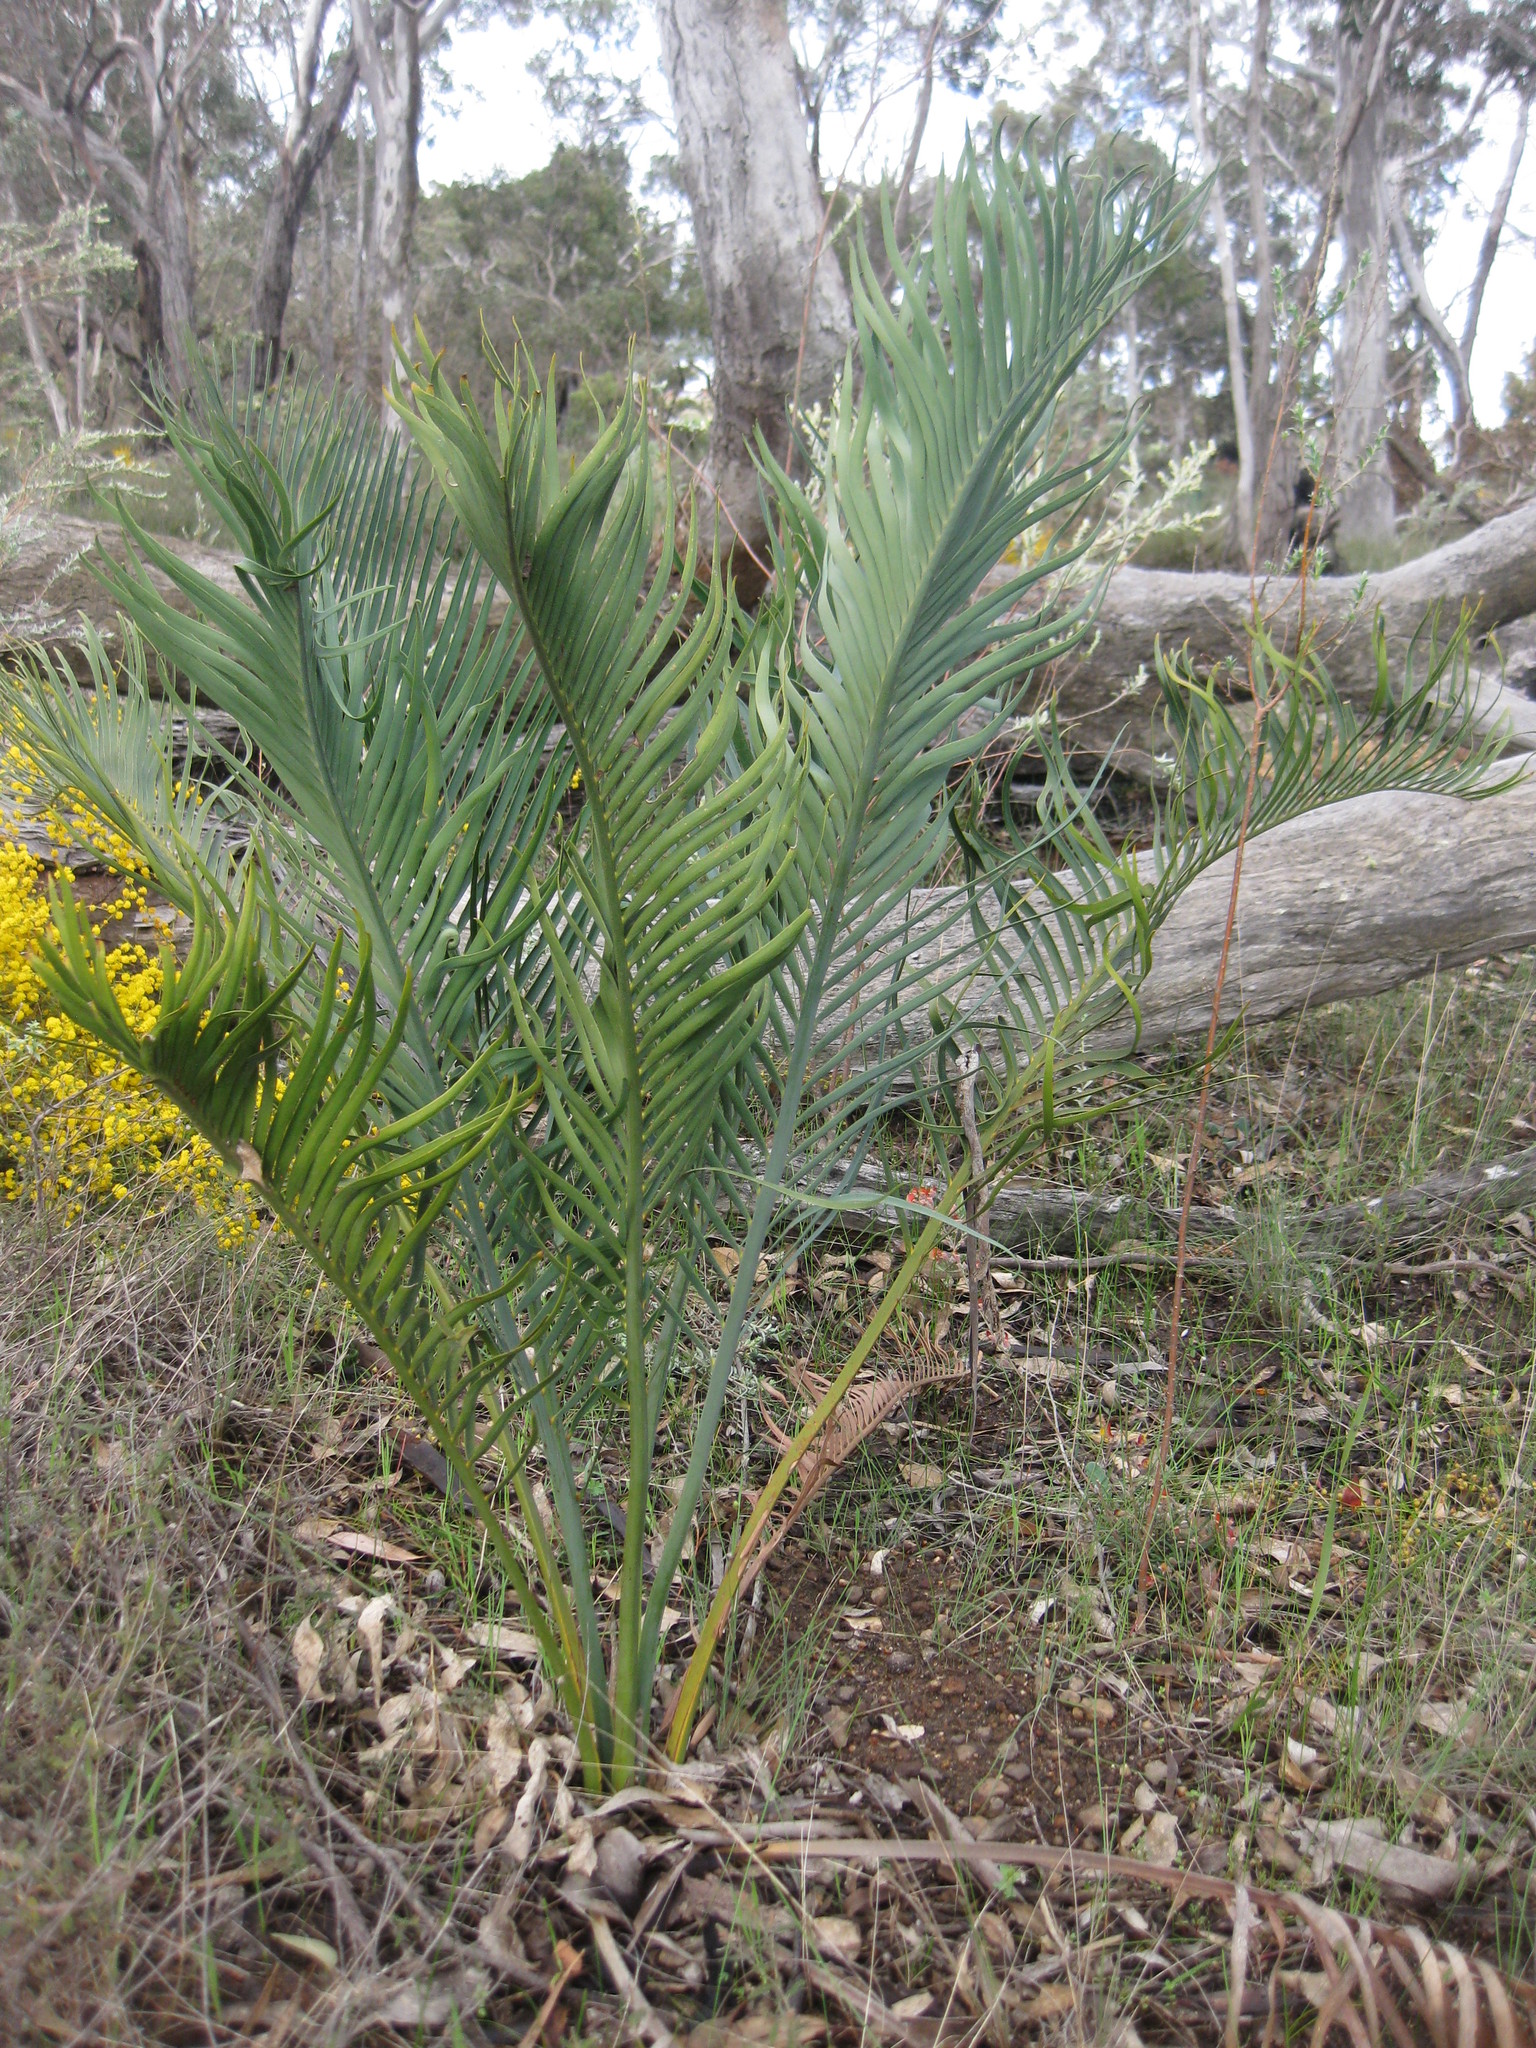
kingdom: Plantae
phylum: Tracheophyta
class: Cycadopsida
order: Cycadales
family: Zamiaceae
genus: Macrozamia
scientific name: Macrozamia riedlei
